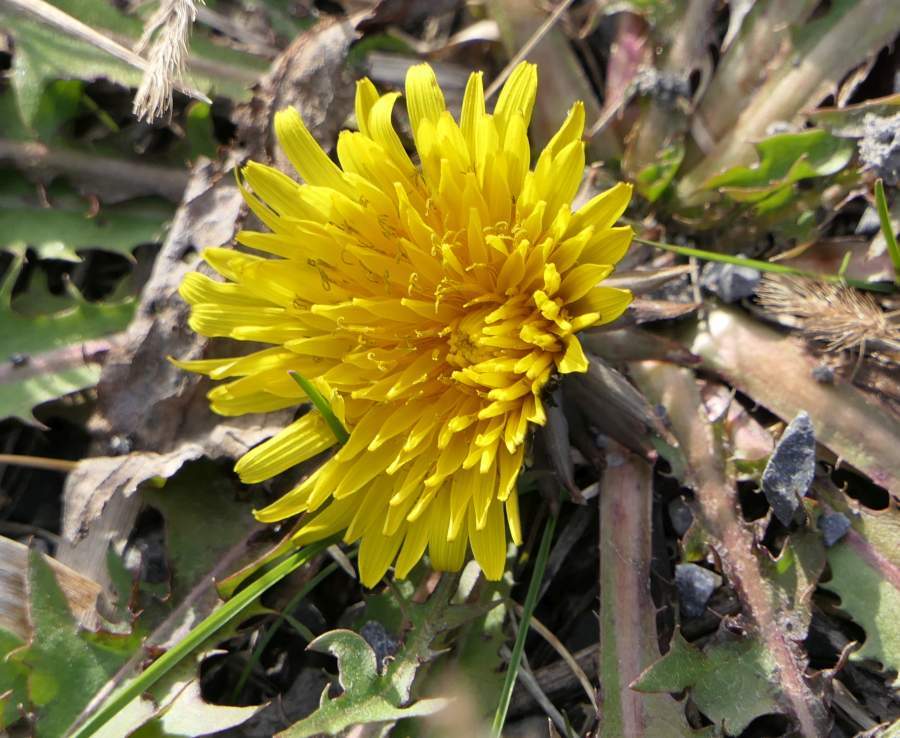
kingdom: Plantae
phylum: Tracheophyta
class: Magnoliopsida
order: Asterales
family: Asteraceae
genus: Taraxacum
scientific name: Taraxacum officinale
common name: Common dandelion
